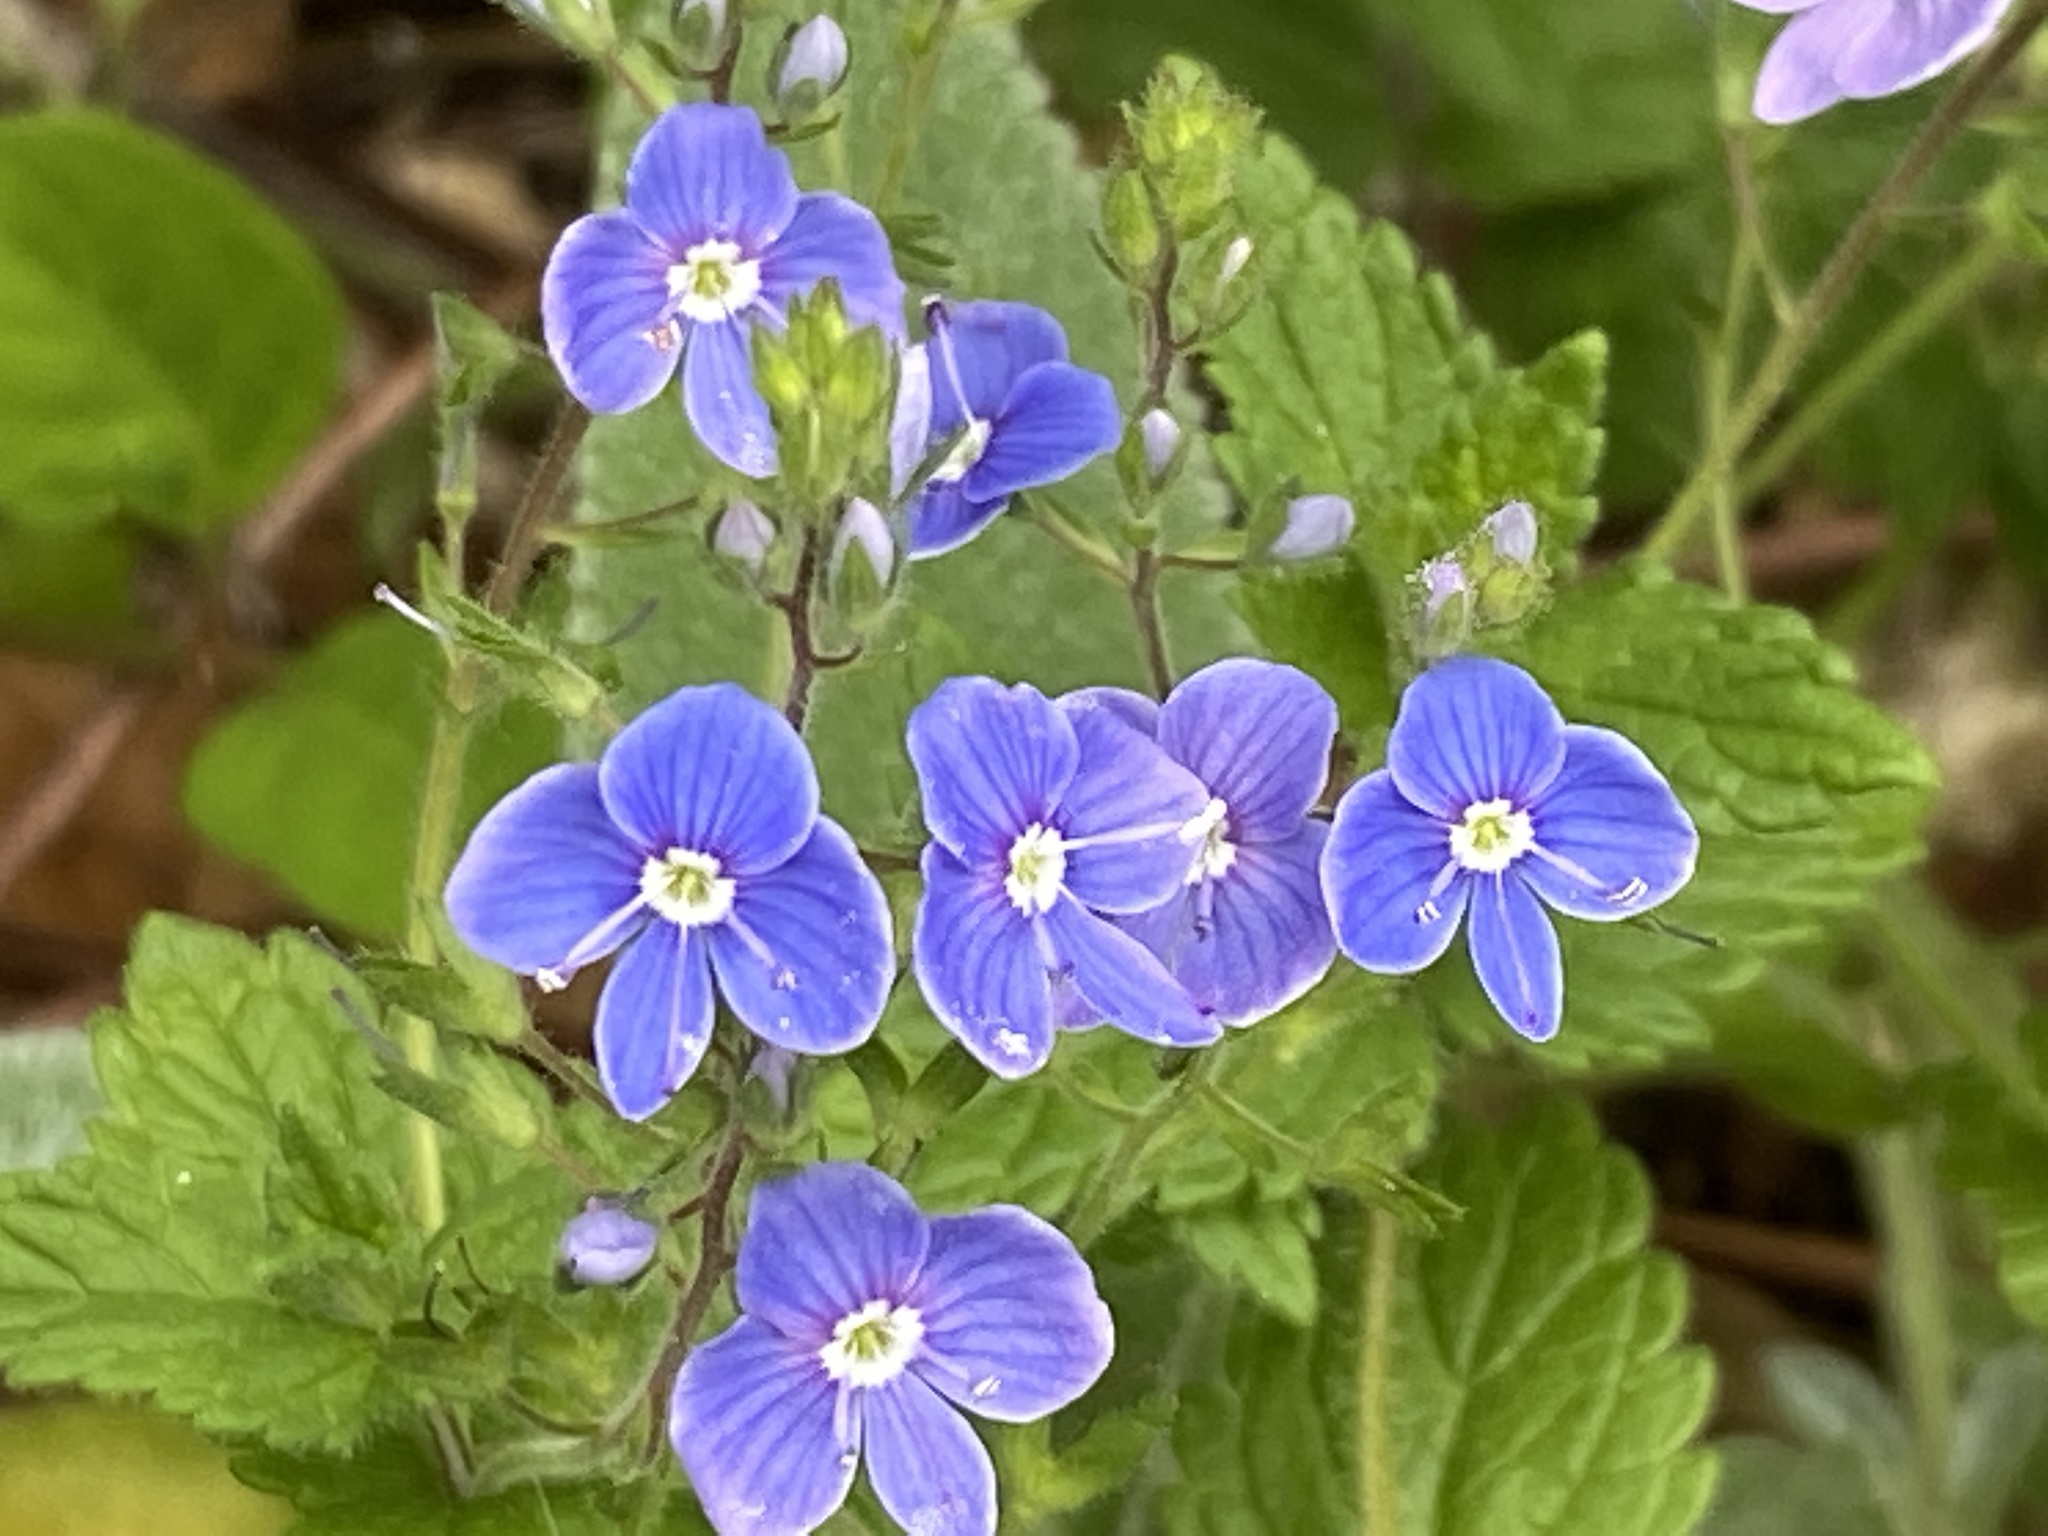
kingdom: Plantae
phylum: Tracheophyta
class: Magnoliopsida
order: Lamiales
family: Plantaginaceae
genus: Veronica
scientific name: Veronica chamaedrys
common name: Germander speedwell
